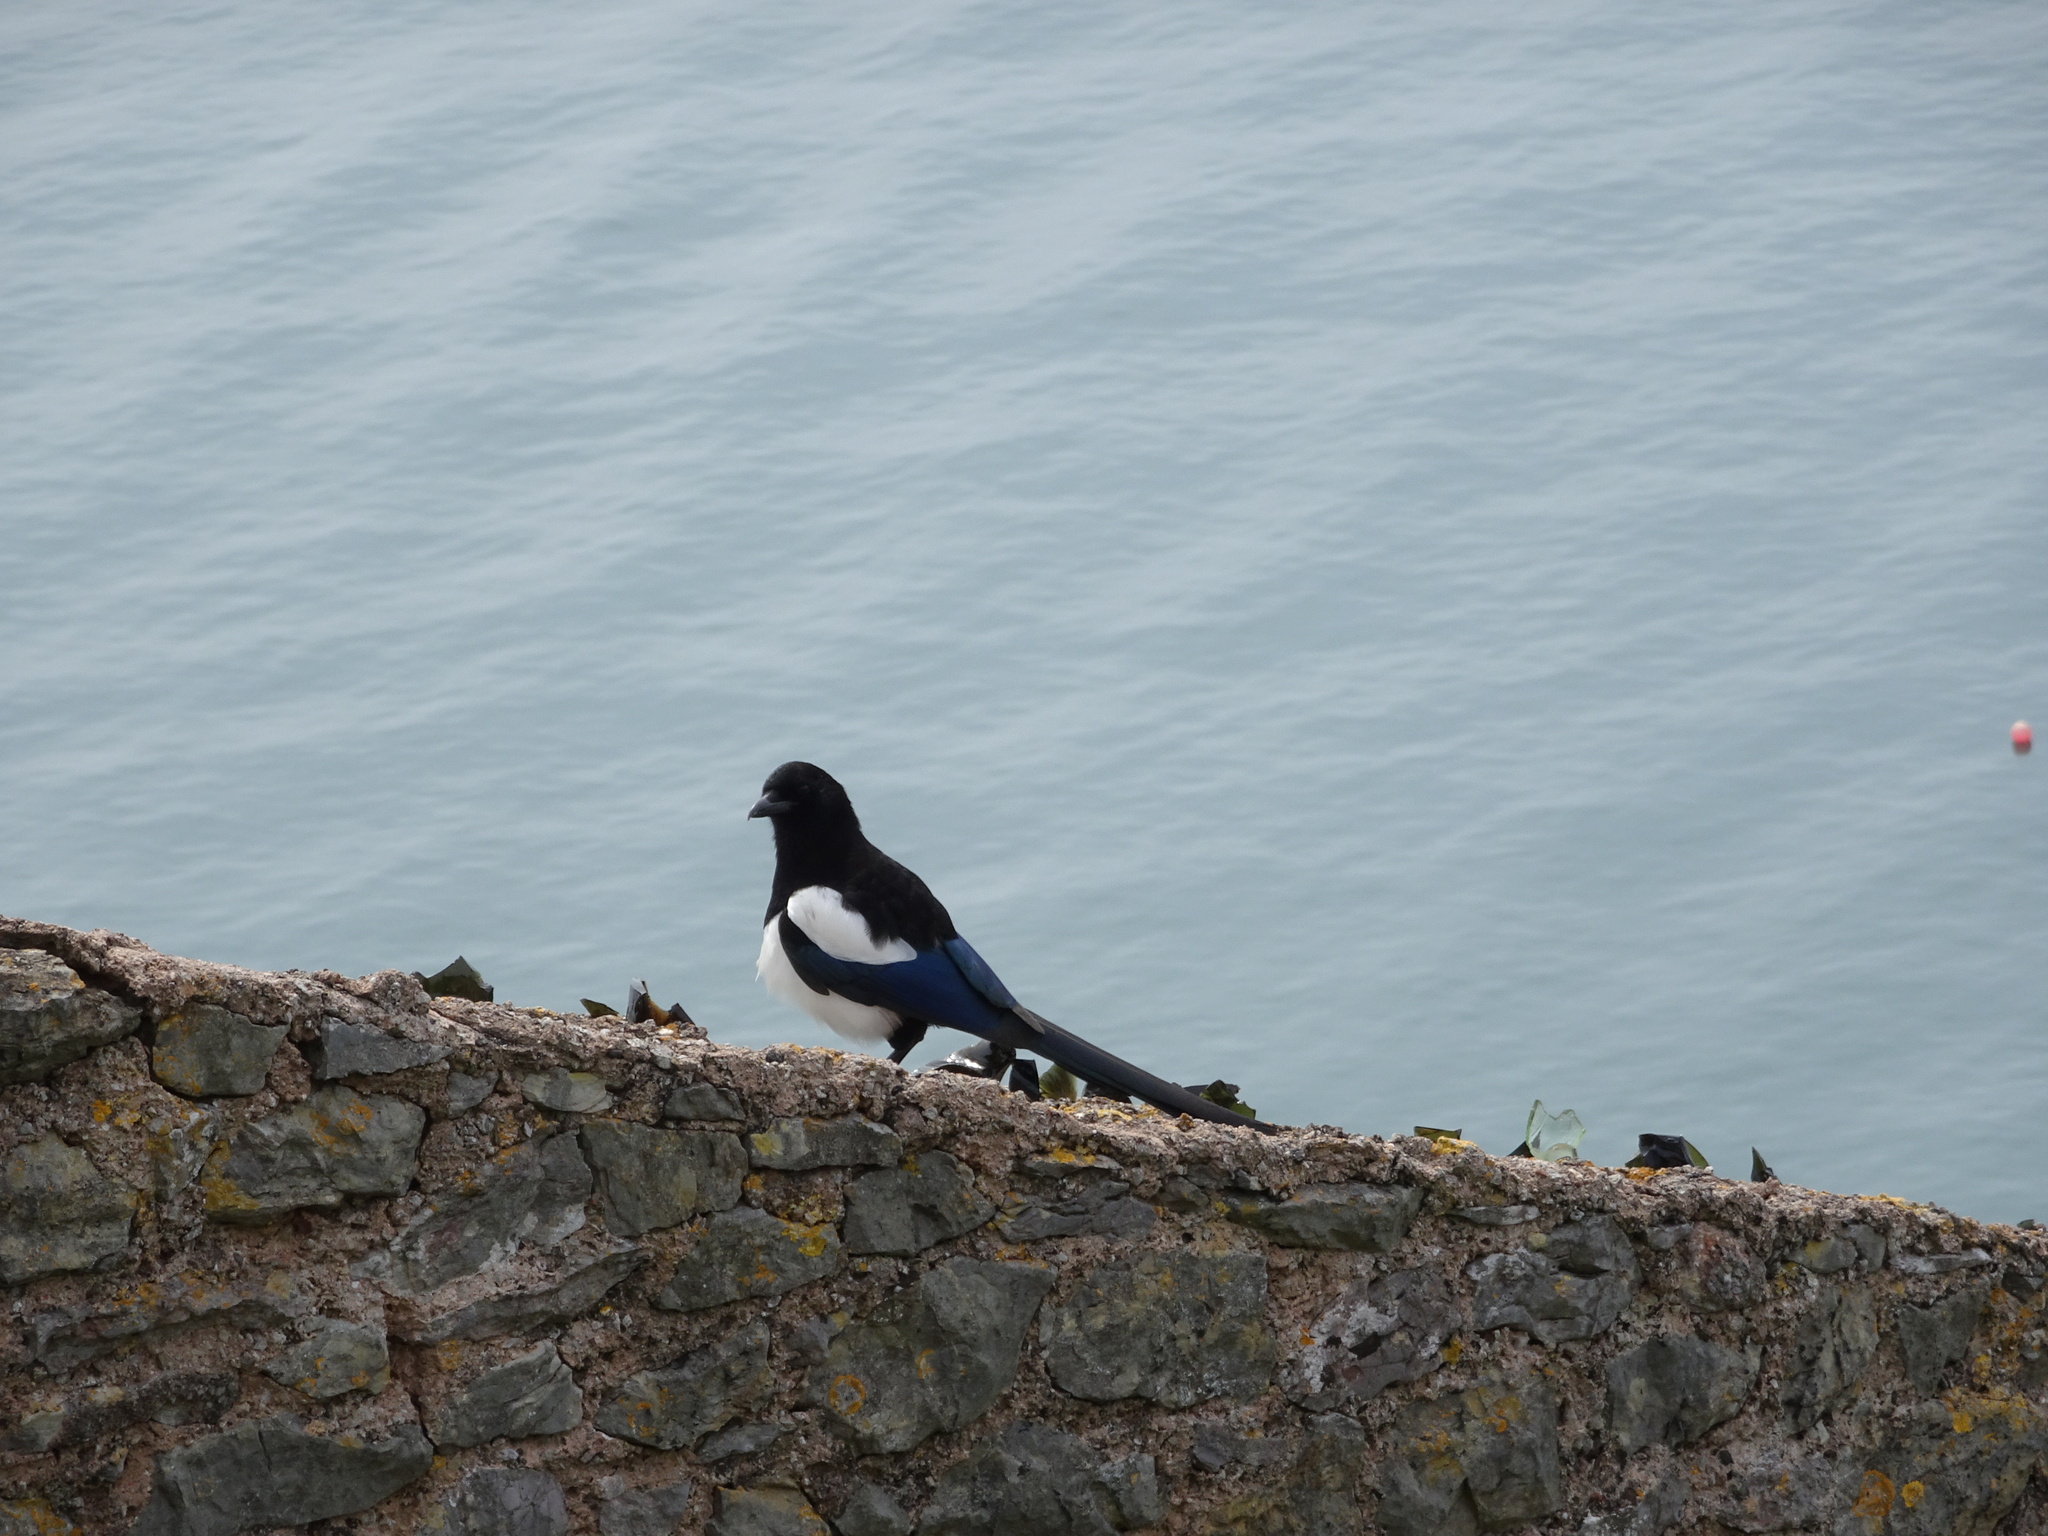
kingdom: Animalia
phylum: Chordata
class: Aves
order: Passeriformes
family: Corvidae
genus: Pica
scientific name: Pica pica
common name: Eurasian magpie
